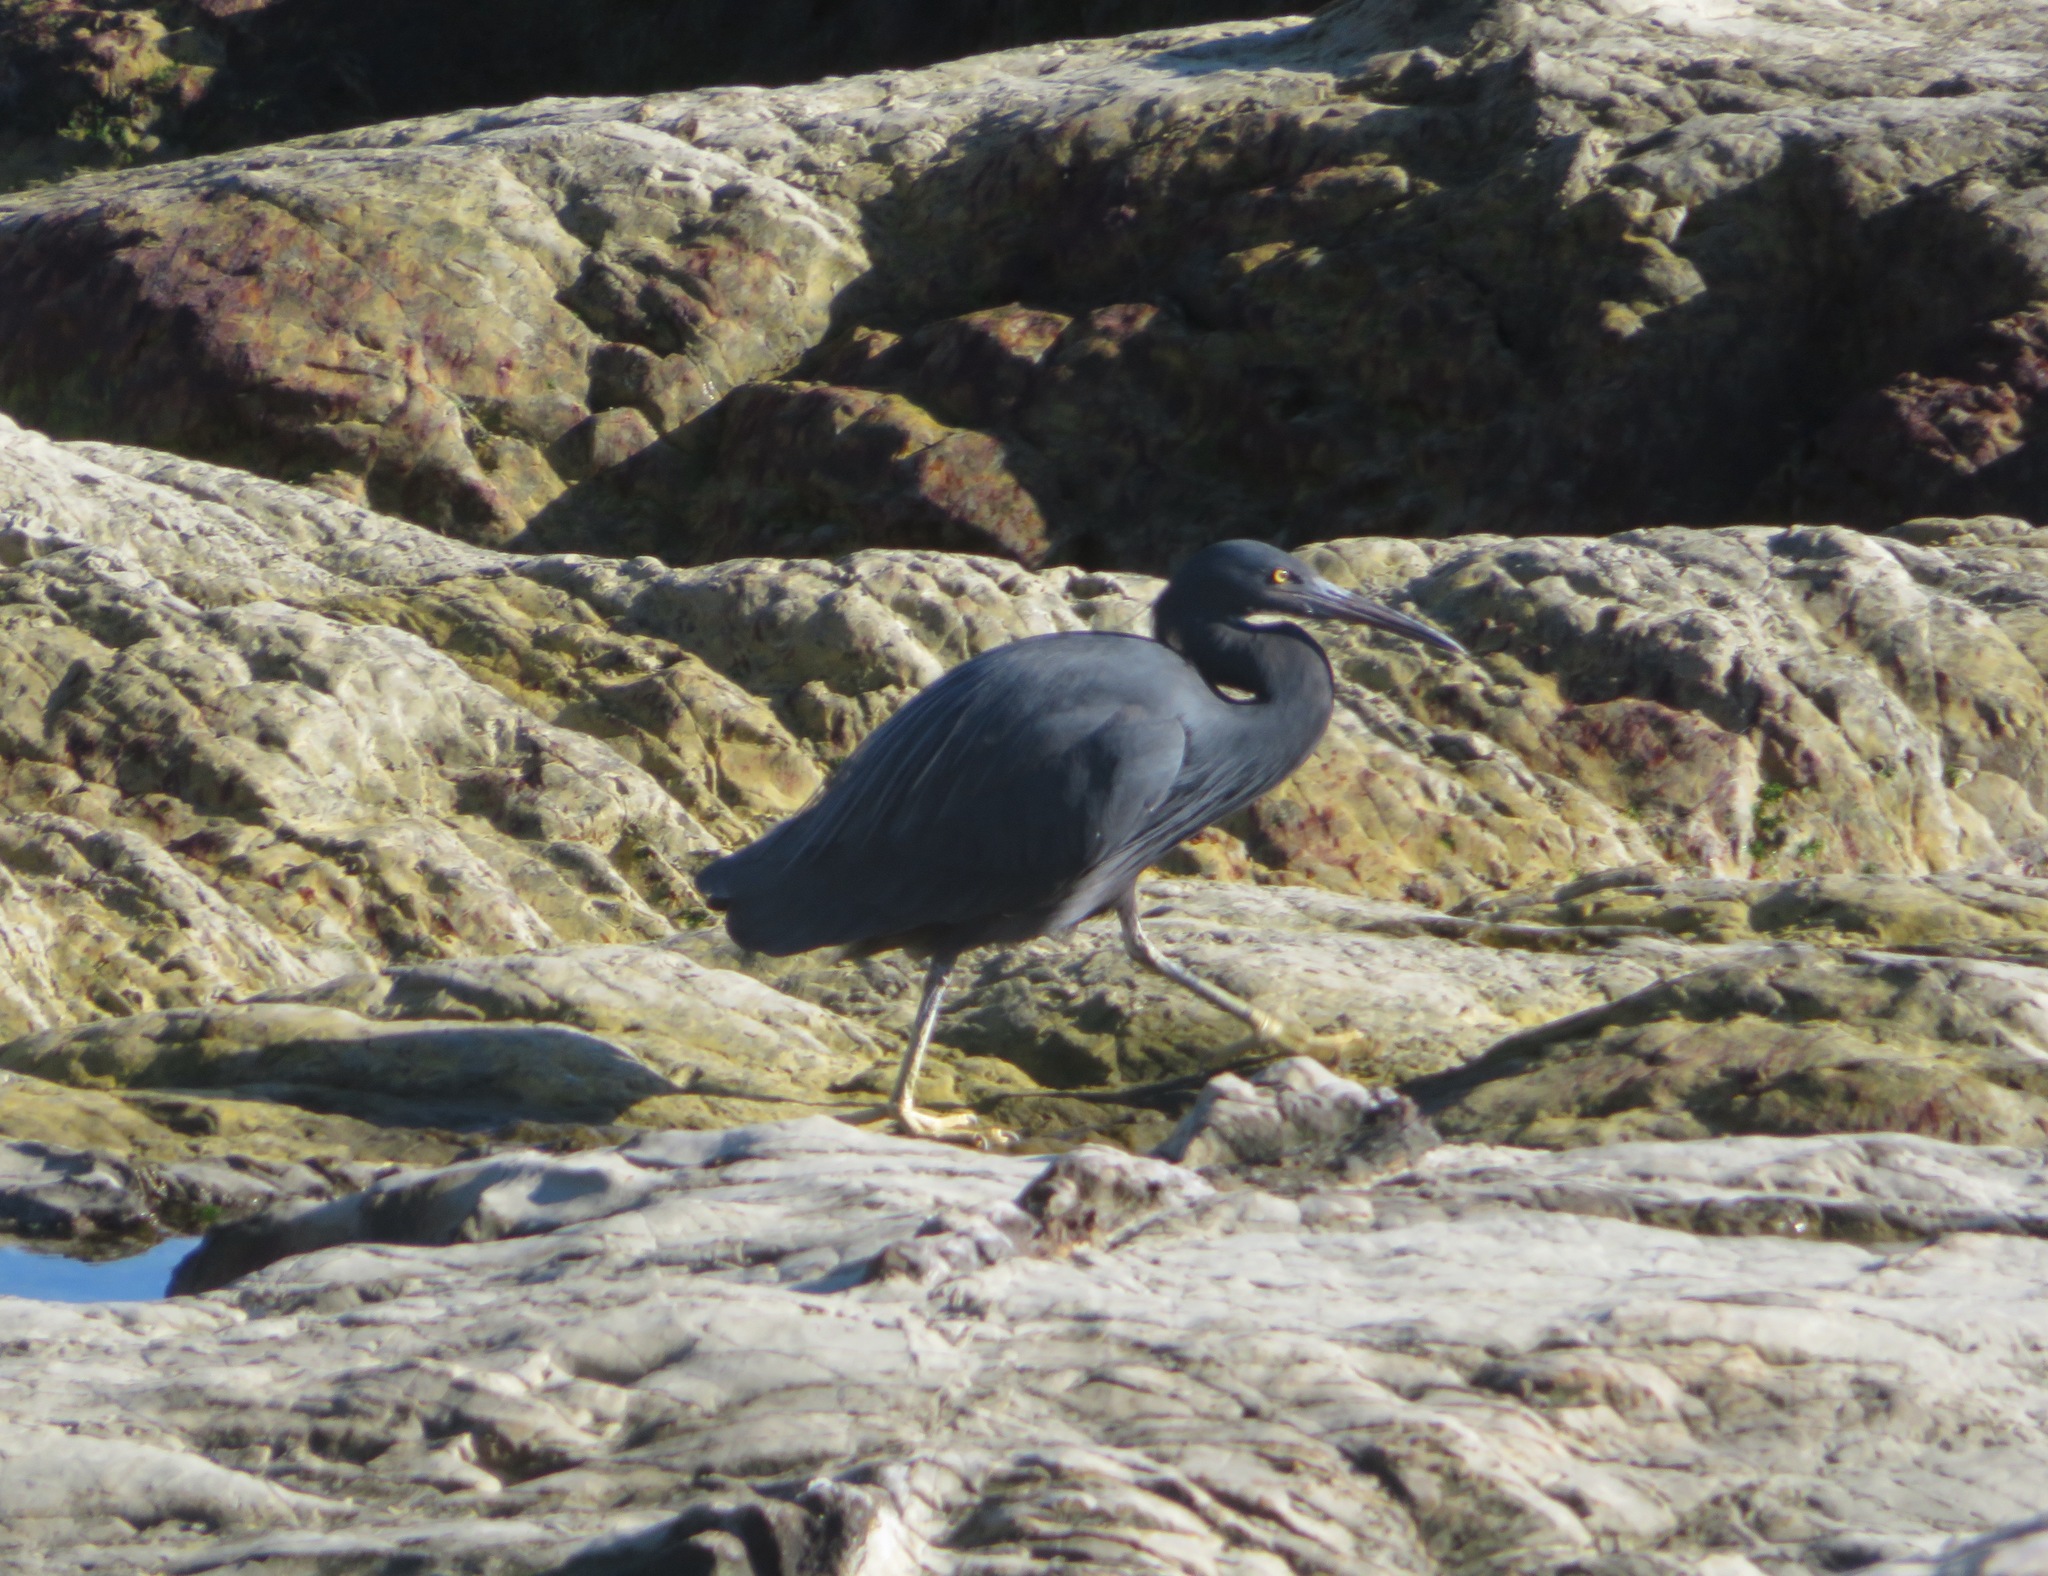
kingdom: Animalia
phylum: Chordata
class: Aves
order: Pelecaniformes
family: Ardeidae
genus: Egretta
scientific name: Egretta sacra
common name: Pacific reef heron
